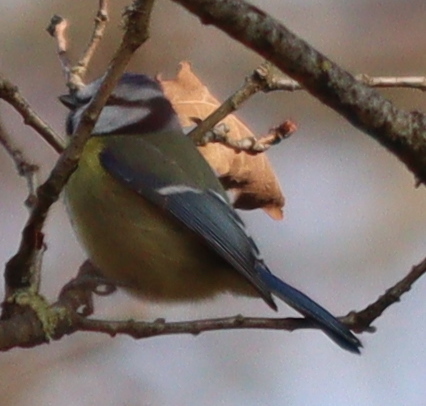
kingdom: Animalia
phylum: Chordata
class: Aves
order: Passeriformes
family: Paridae
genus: Cyanistes
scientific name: Cyanistes caeruleus
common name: Eurasian blue tit
